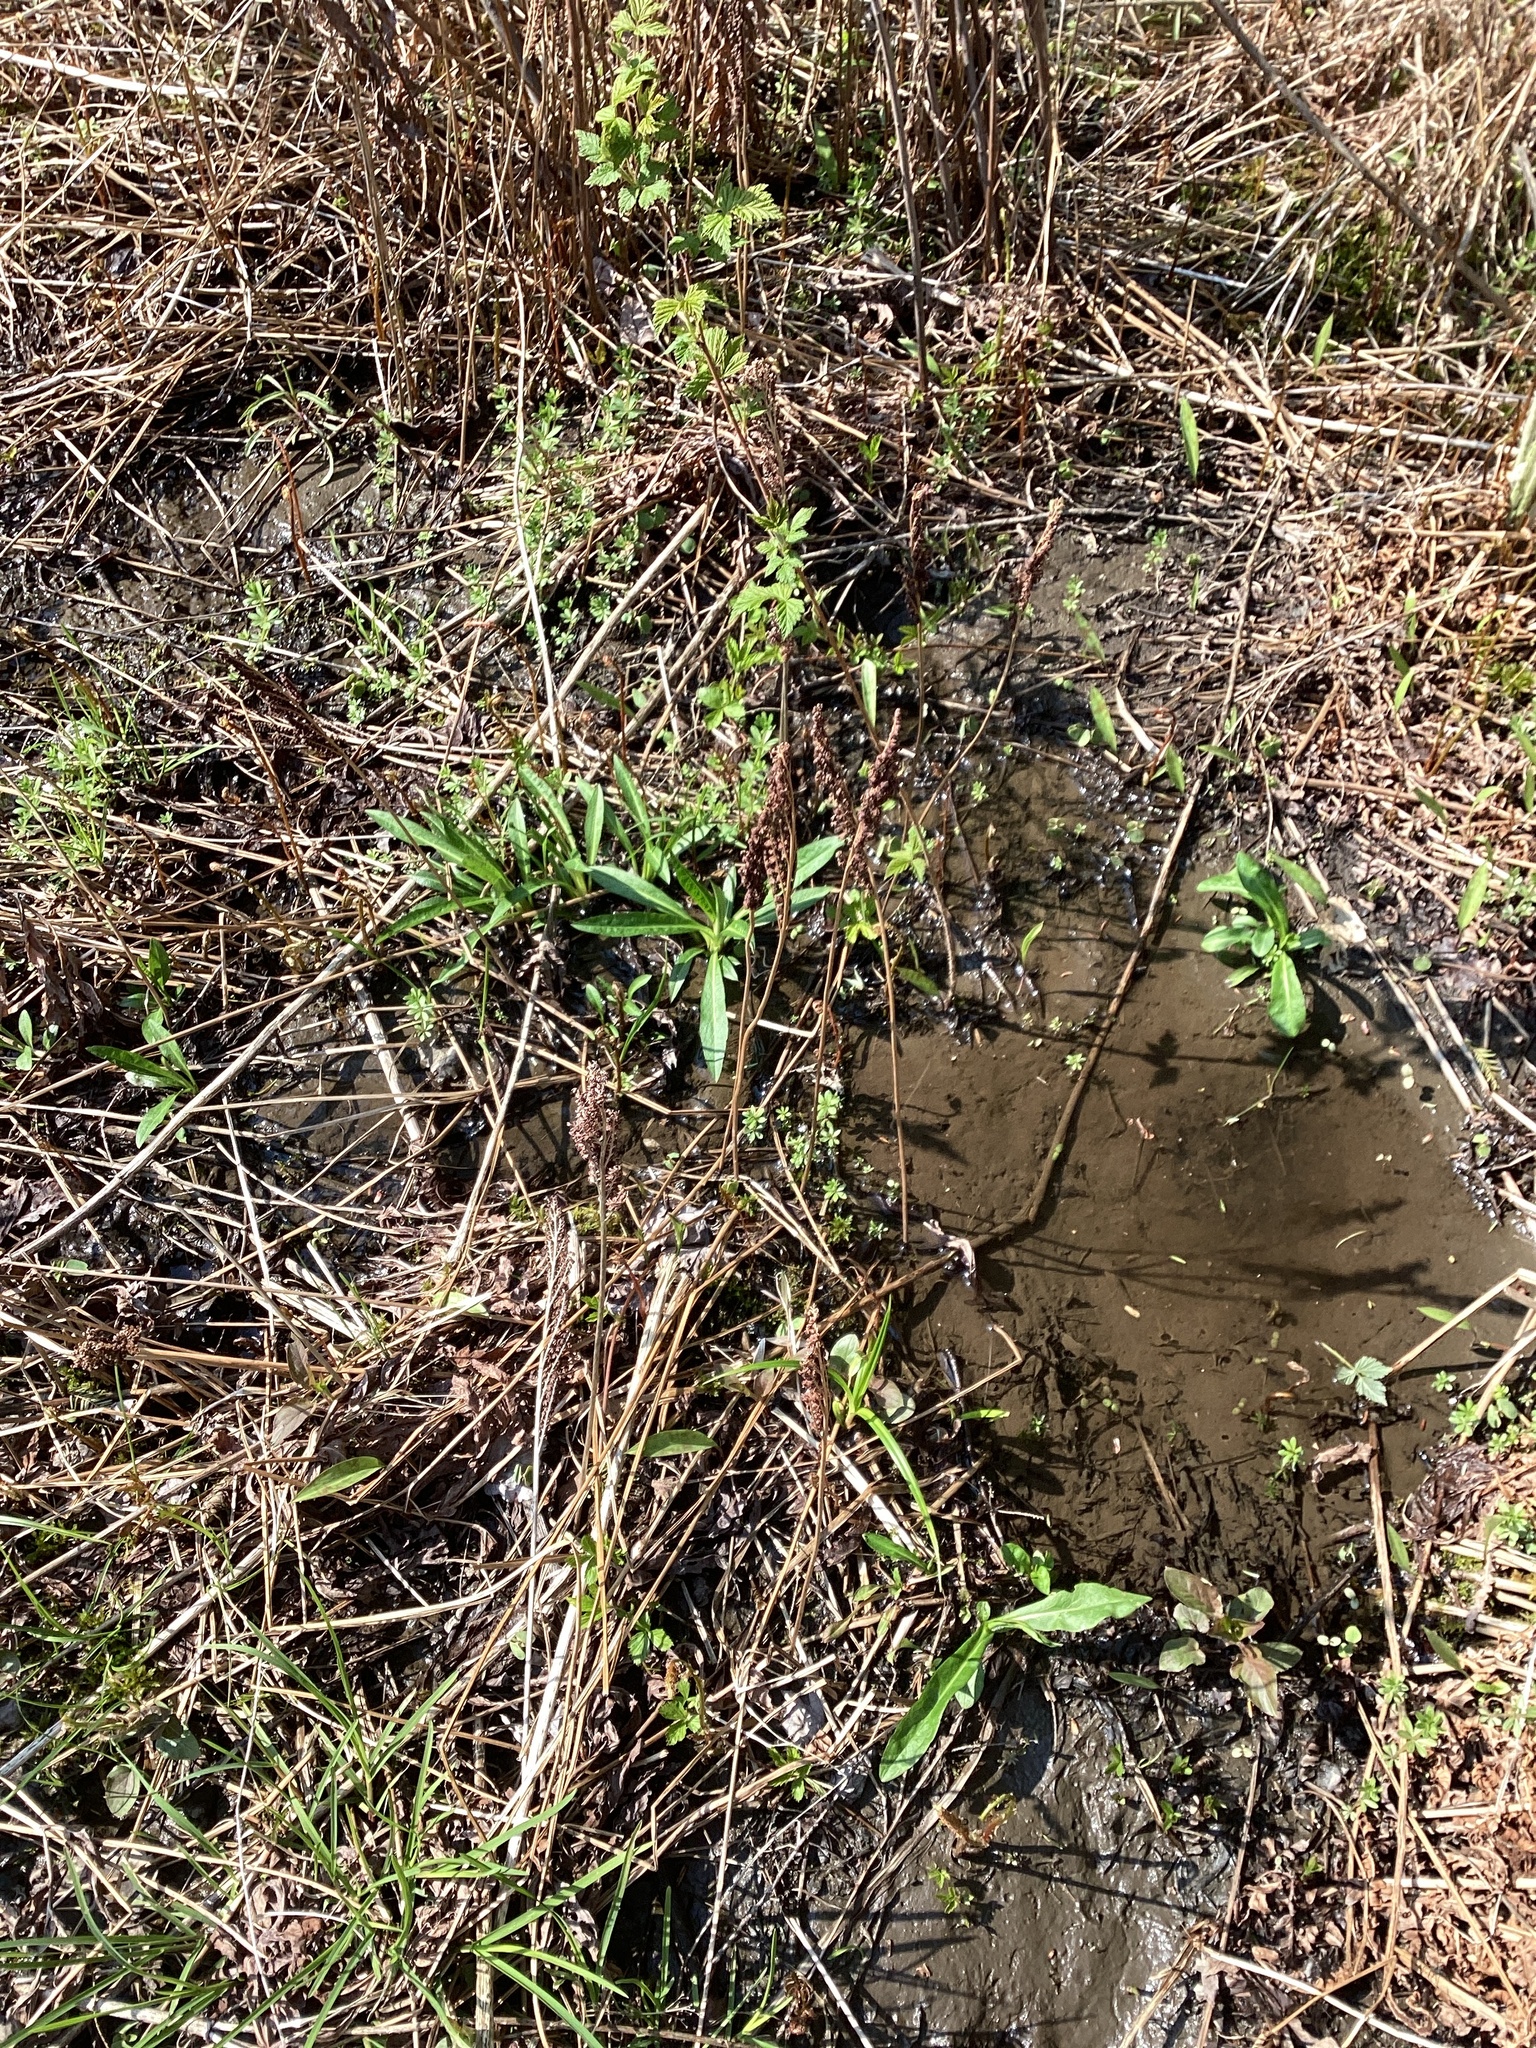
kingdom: Plantae
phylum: Tracheophyta
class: Polypodiopsida
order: Polypodiales
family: Onocleaceae
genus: Onoclea
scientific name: Onoclea sensibilis
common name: Sensitive fern
